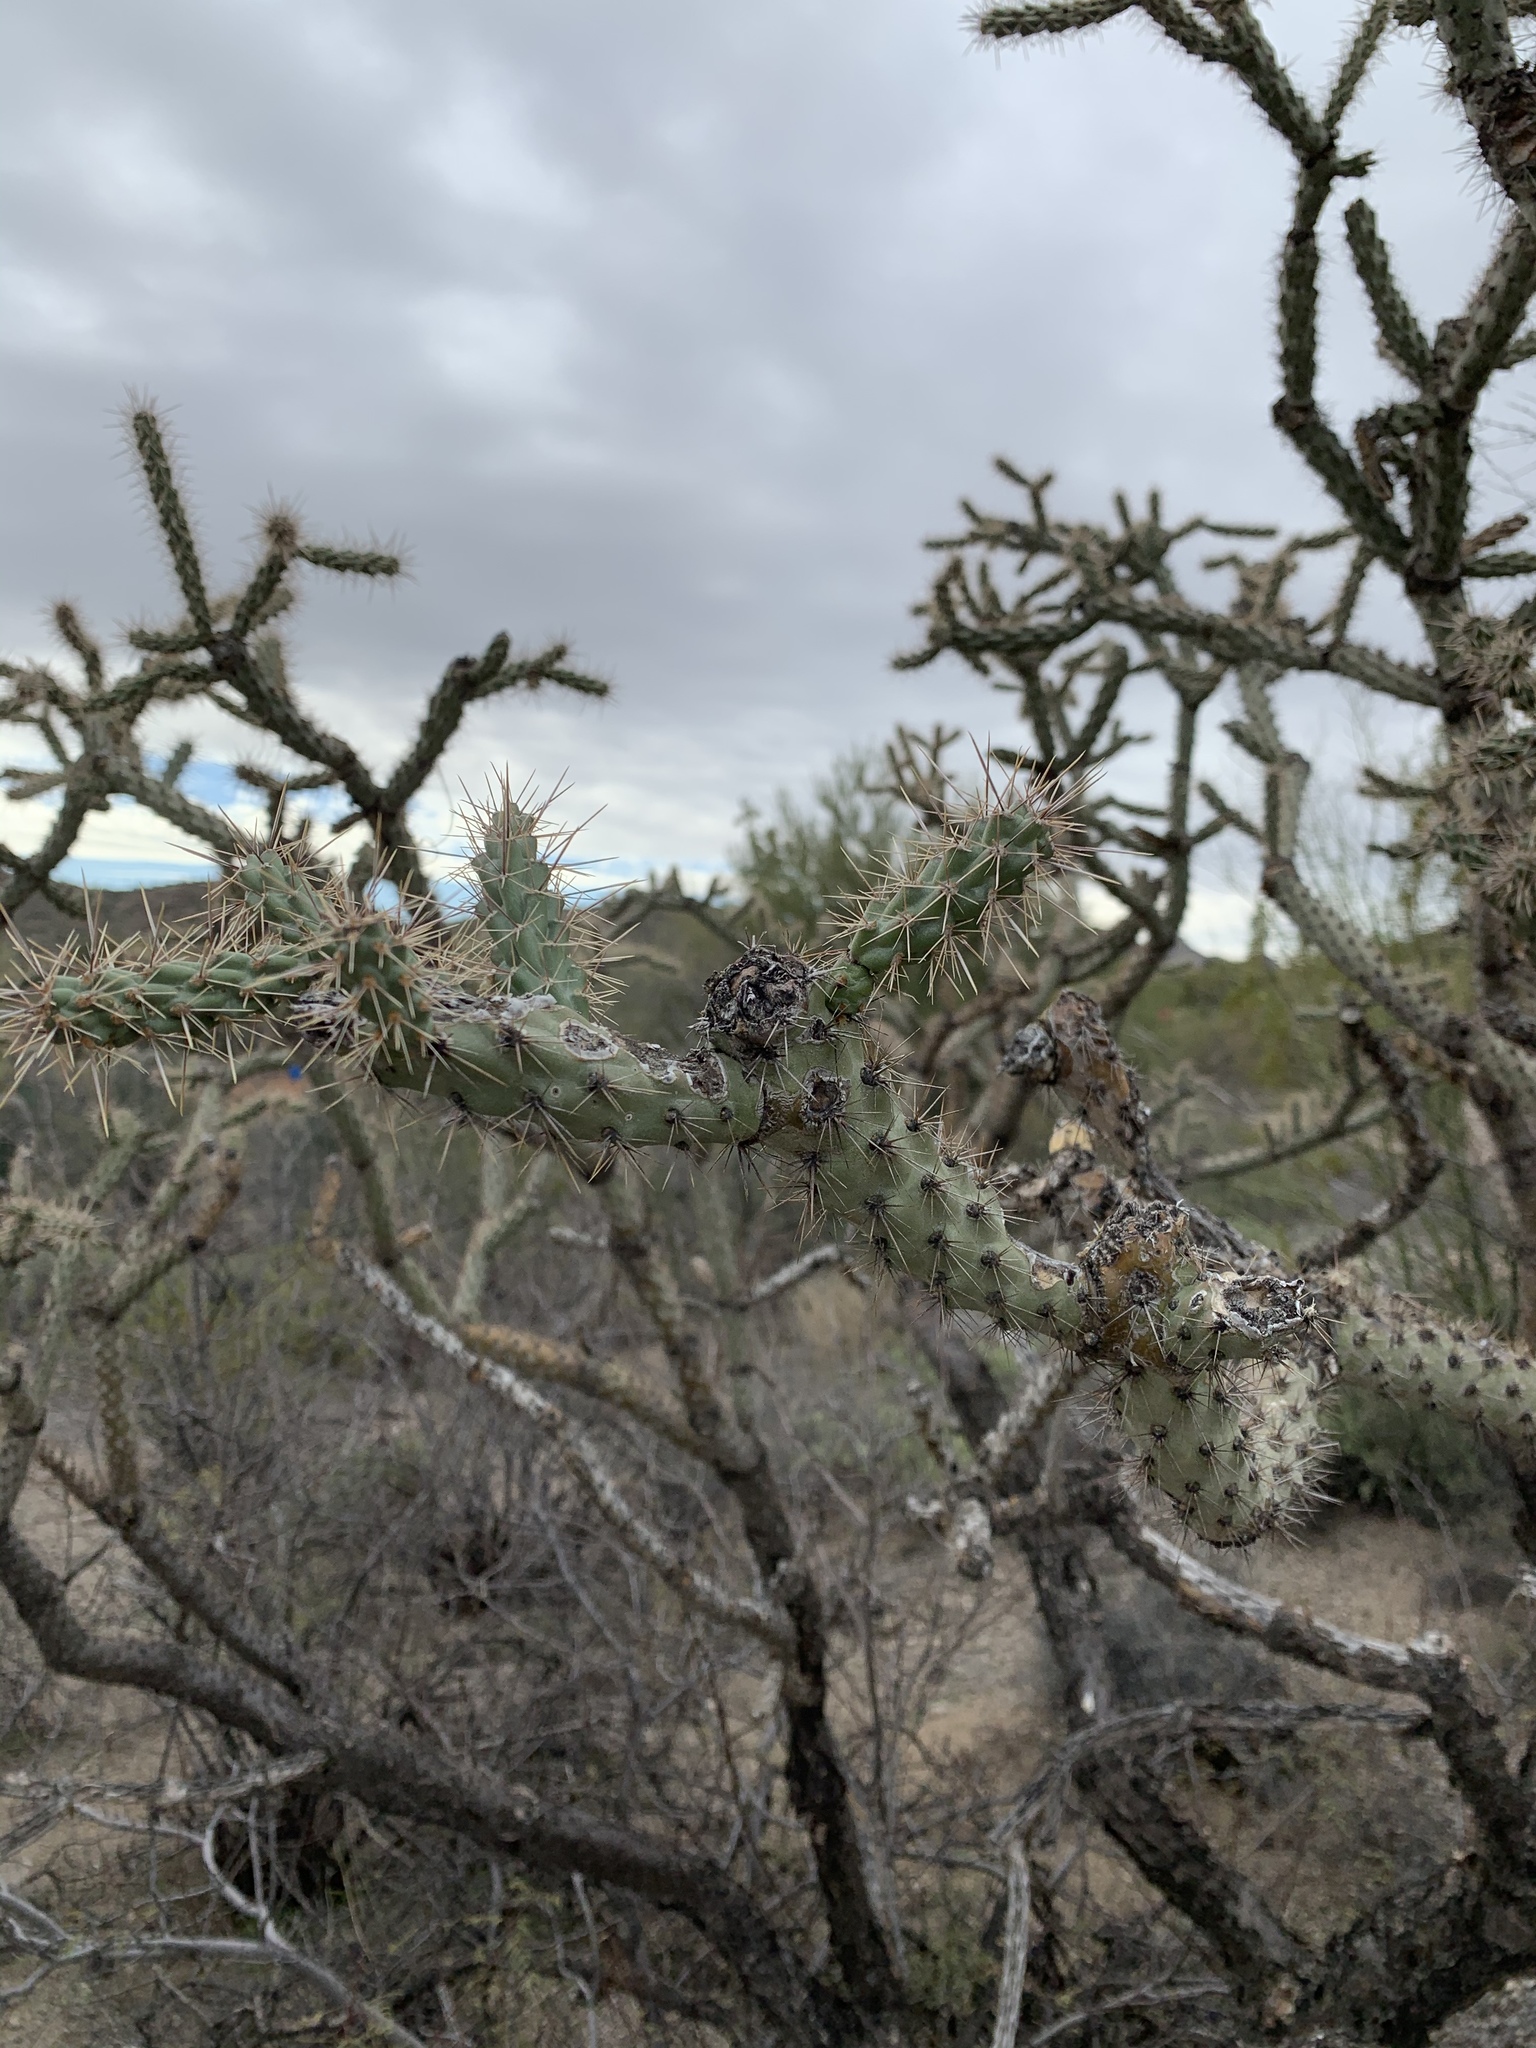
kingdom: Plantae
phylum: Tracheophyta
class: Magnoliopsida
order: Caryophyllales
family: Cactaceae
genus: Cylindropuntia
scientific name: Cylindropuntia thurberi
